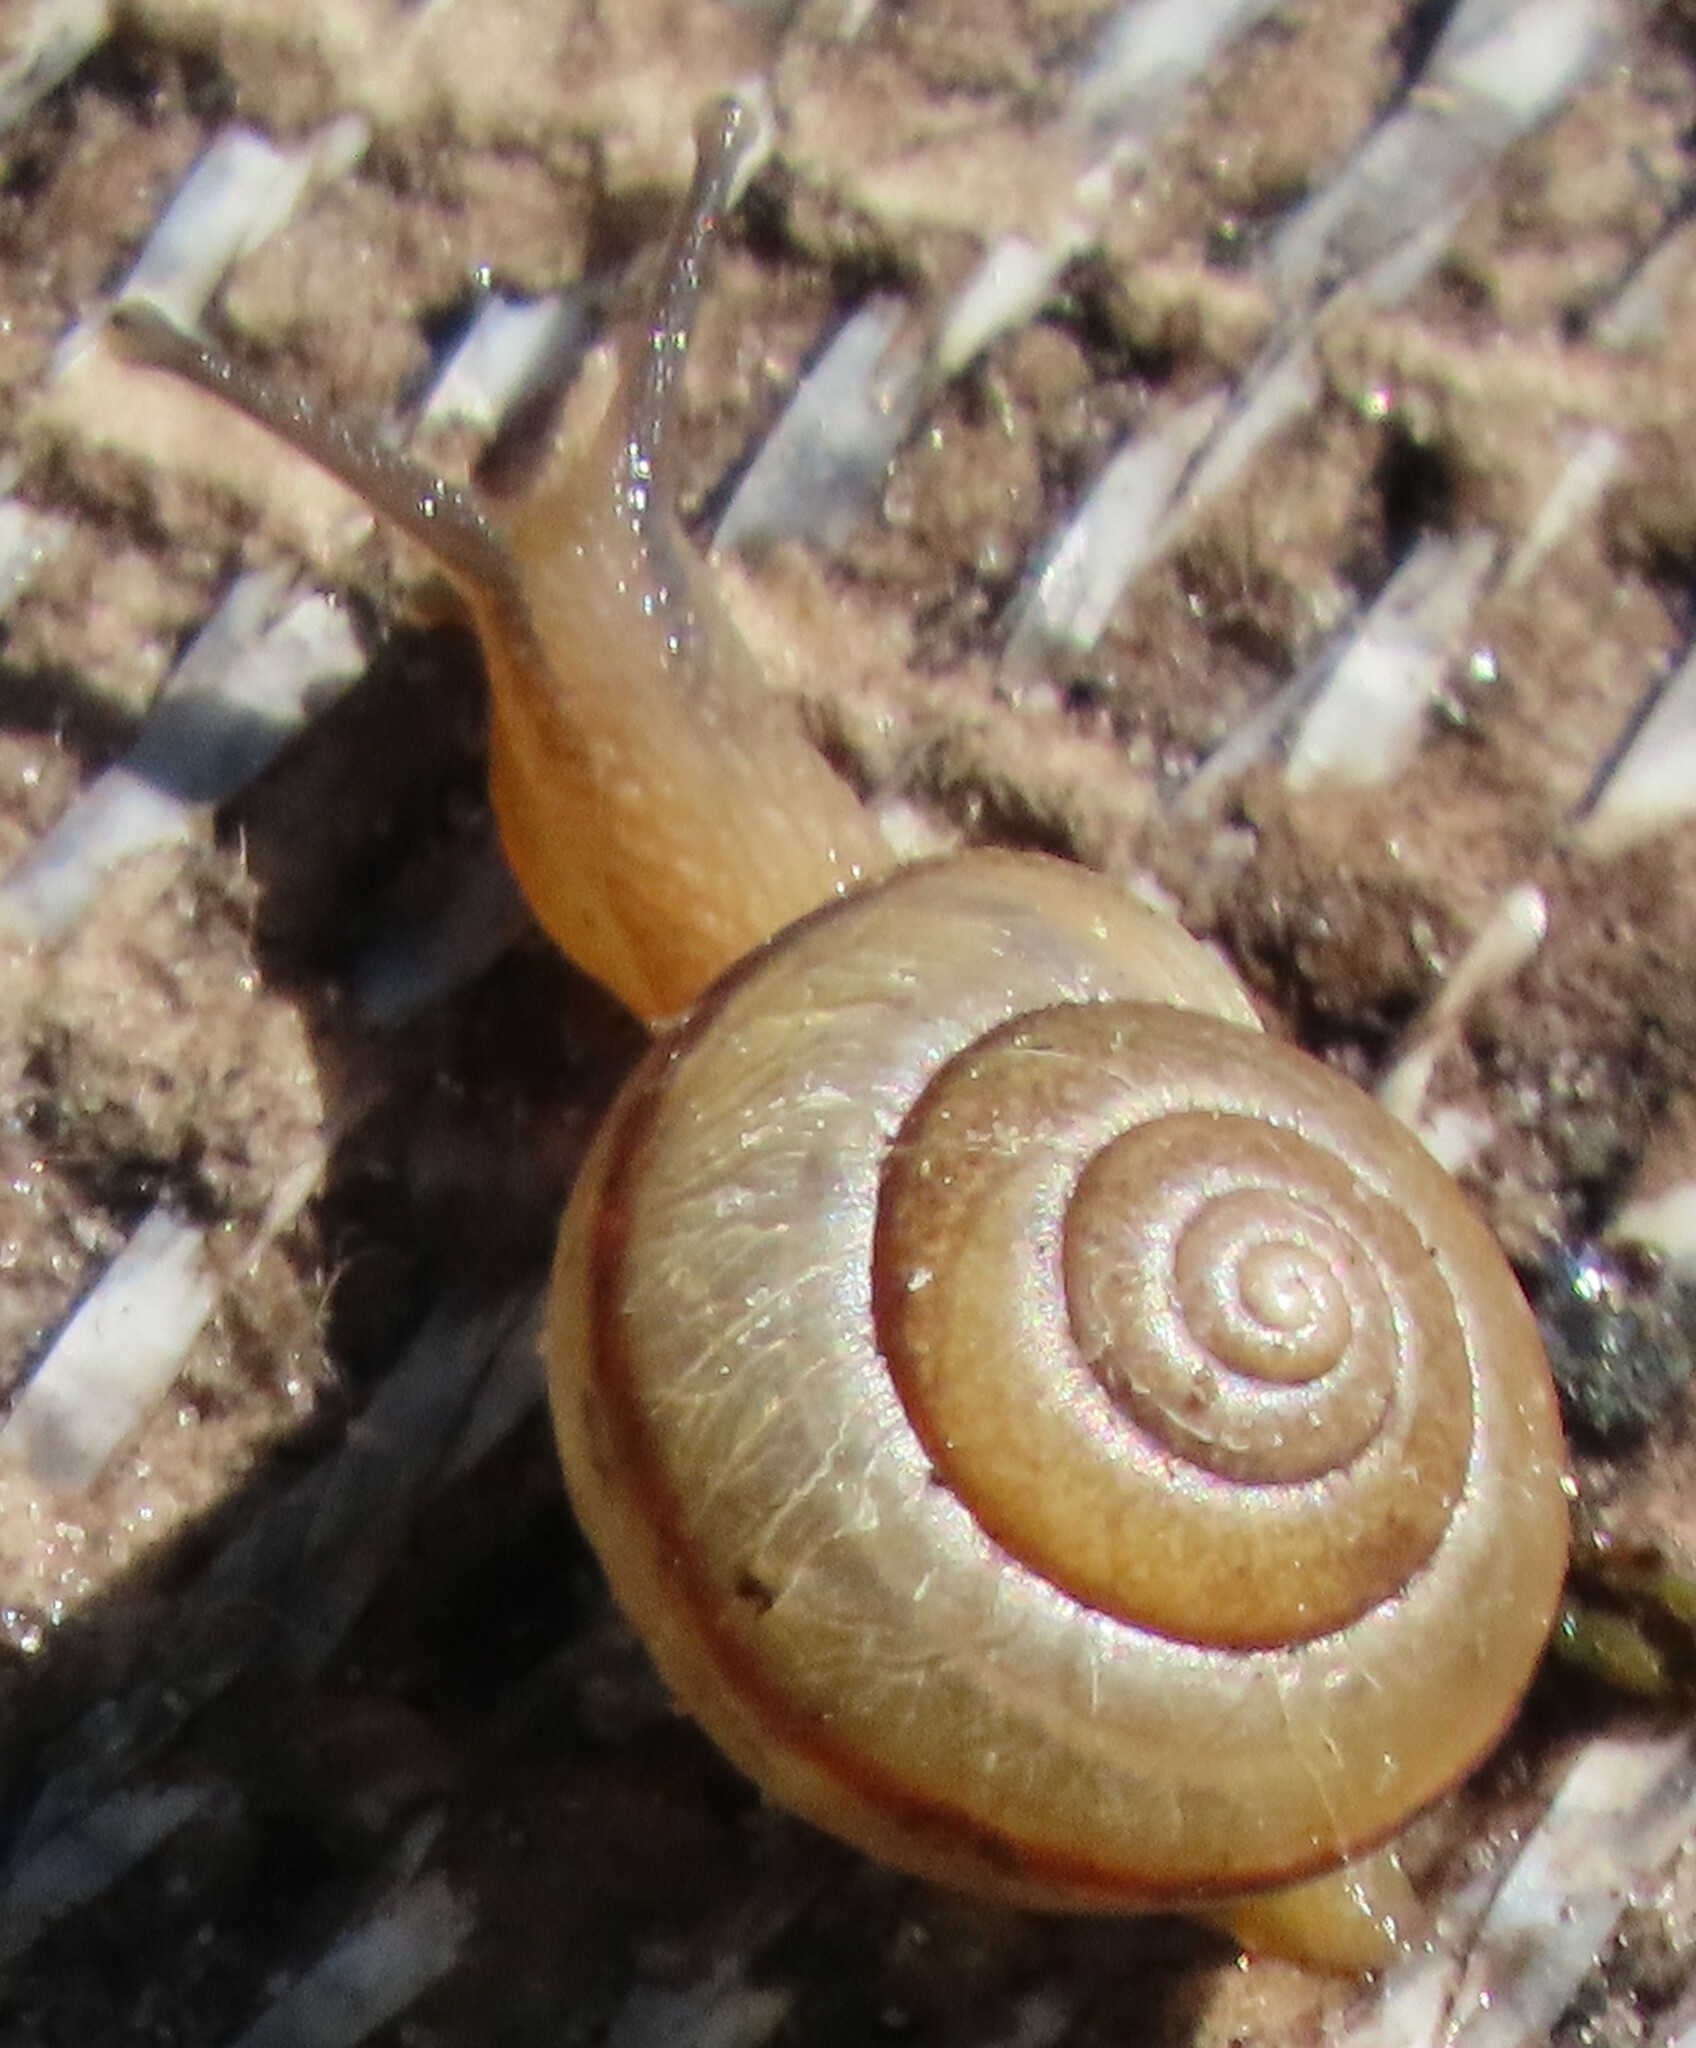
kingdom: Animalia
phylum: Mollusca
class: Gastropoda
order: Stylommatophora
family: Camaenidae
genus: Bradybaena
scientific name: Bradybaena similaris
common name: Asian trampsnail
